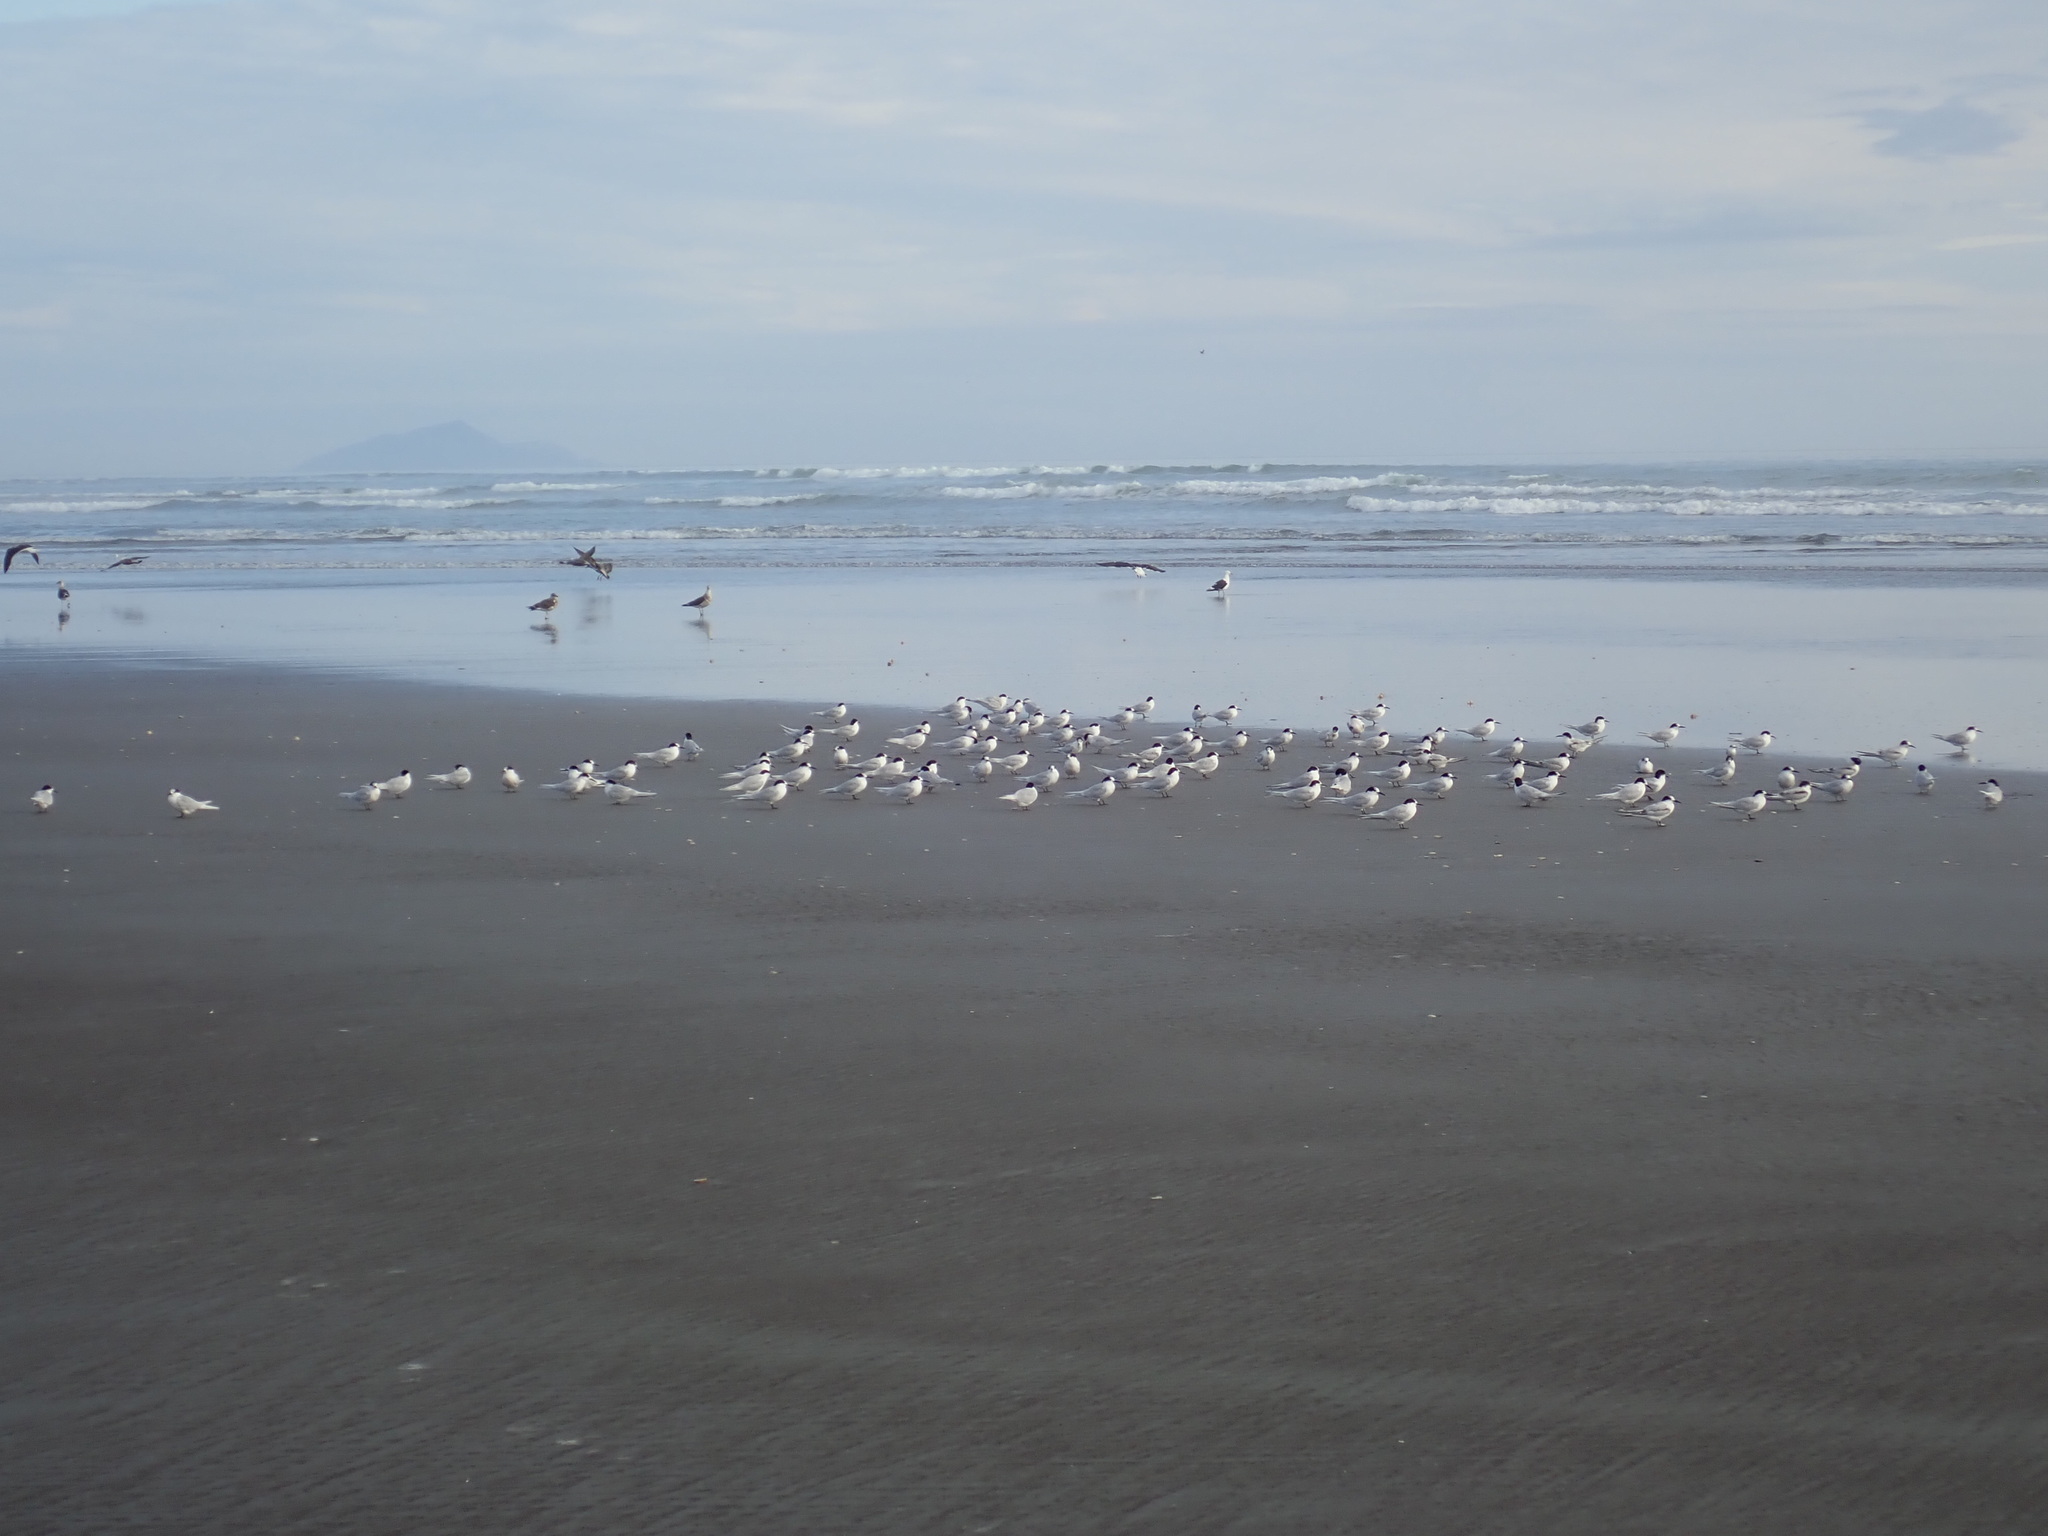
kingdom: Animalia
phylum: Chordata
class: Aves
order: Charadriiformes
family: Laridae
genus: Sterna
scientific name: Sterna striata
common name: White-fronted tern
